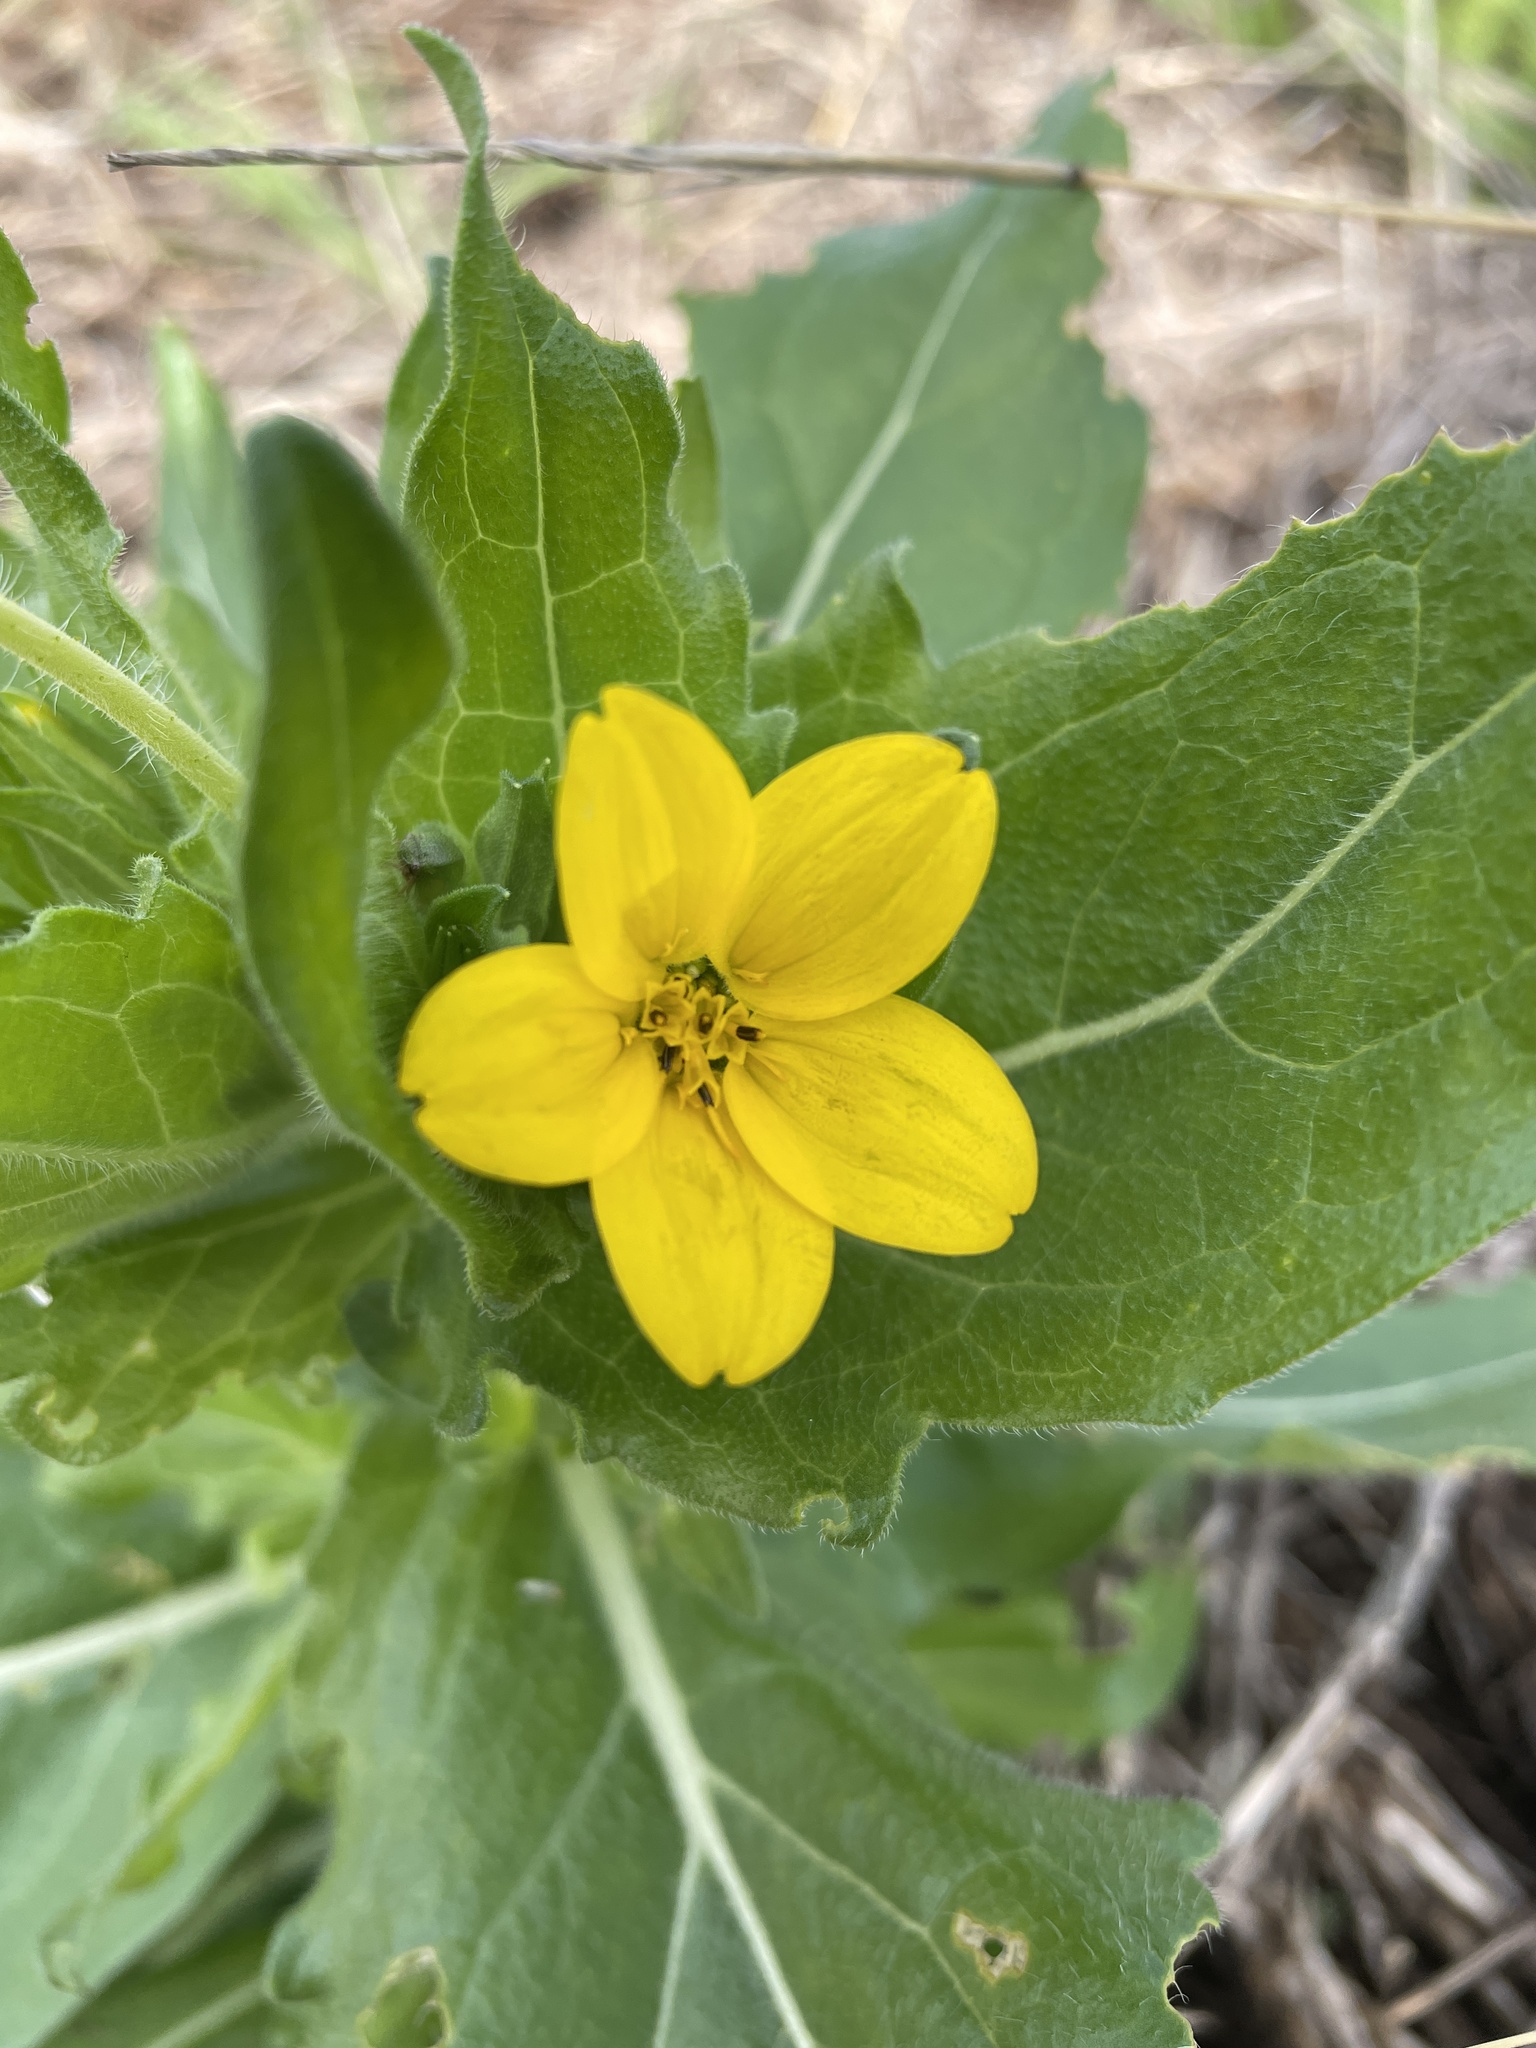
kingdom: Plantae
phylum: Tracheophyta
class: Magnoliopsida
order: Asterales
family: Asteraceae
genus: Lindheimera
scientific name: Lindheimera texana
